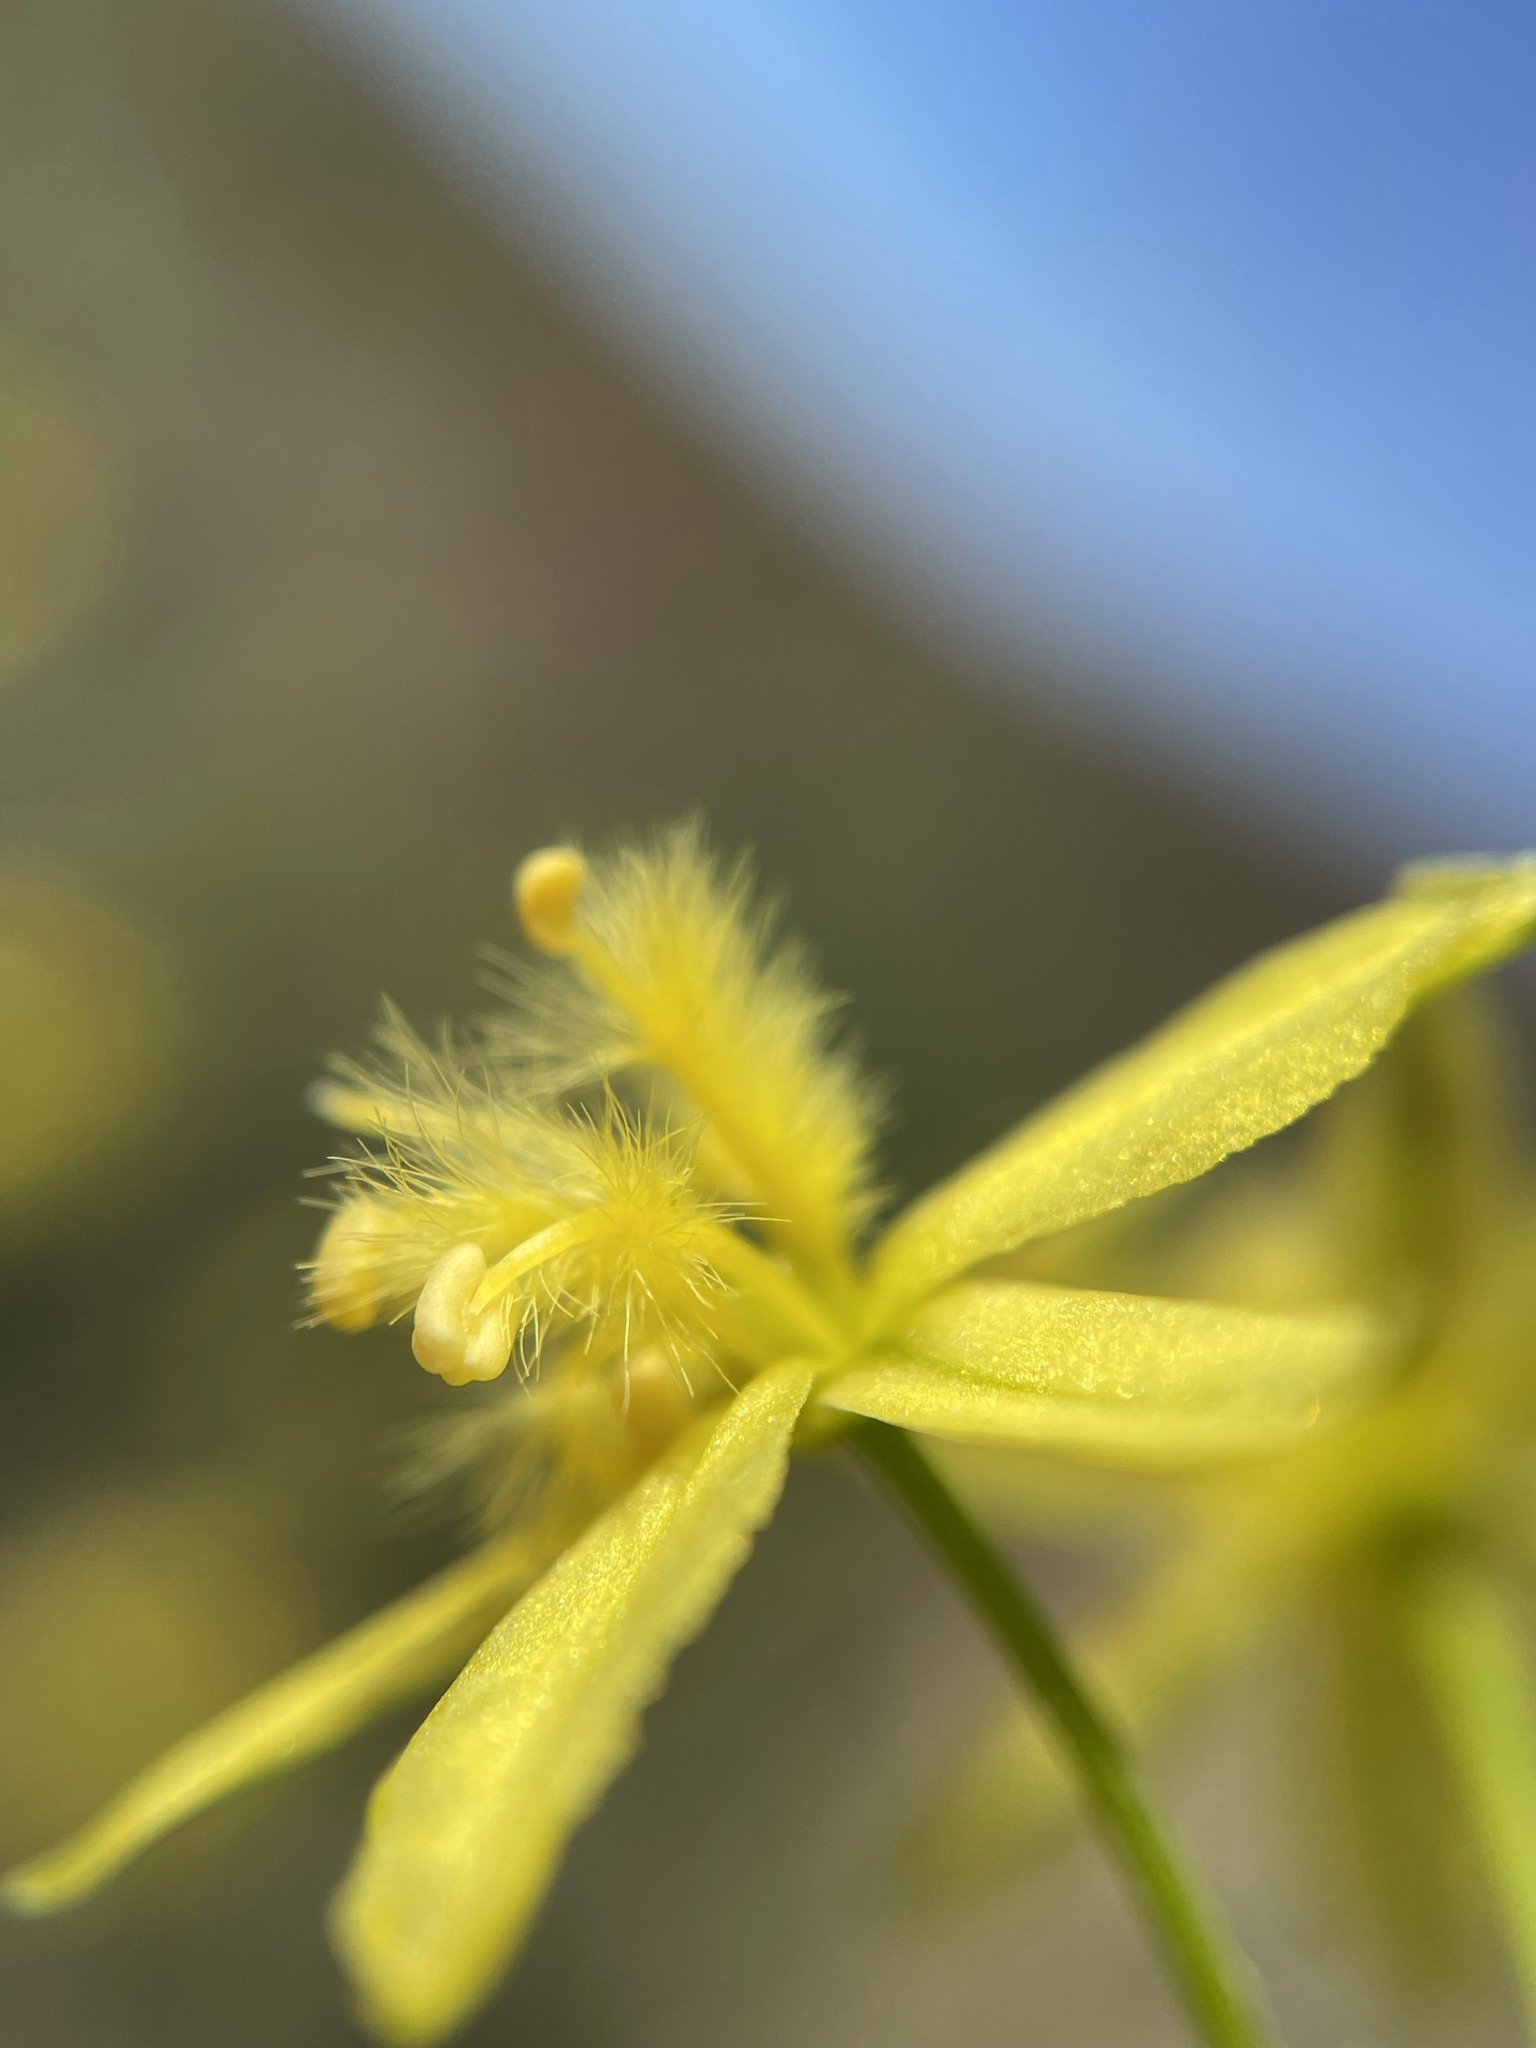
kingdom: Plantae
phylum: Tracheophyta
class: Liliopsida
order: Asparagales
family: Asphodelaceae
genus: Bulbine
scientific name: Bulbine frutescens
